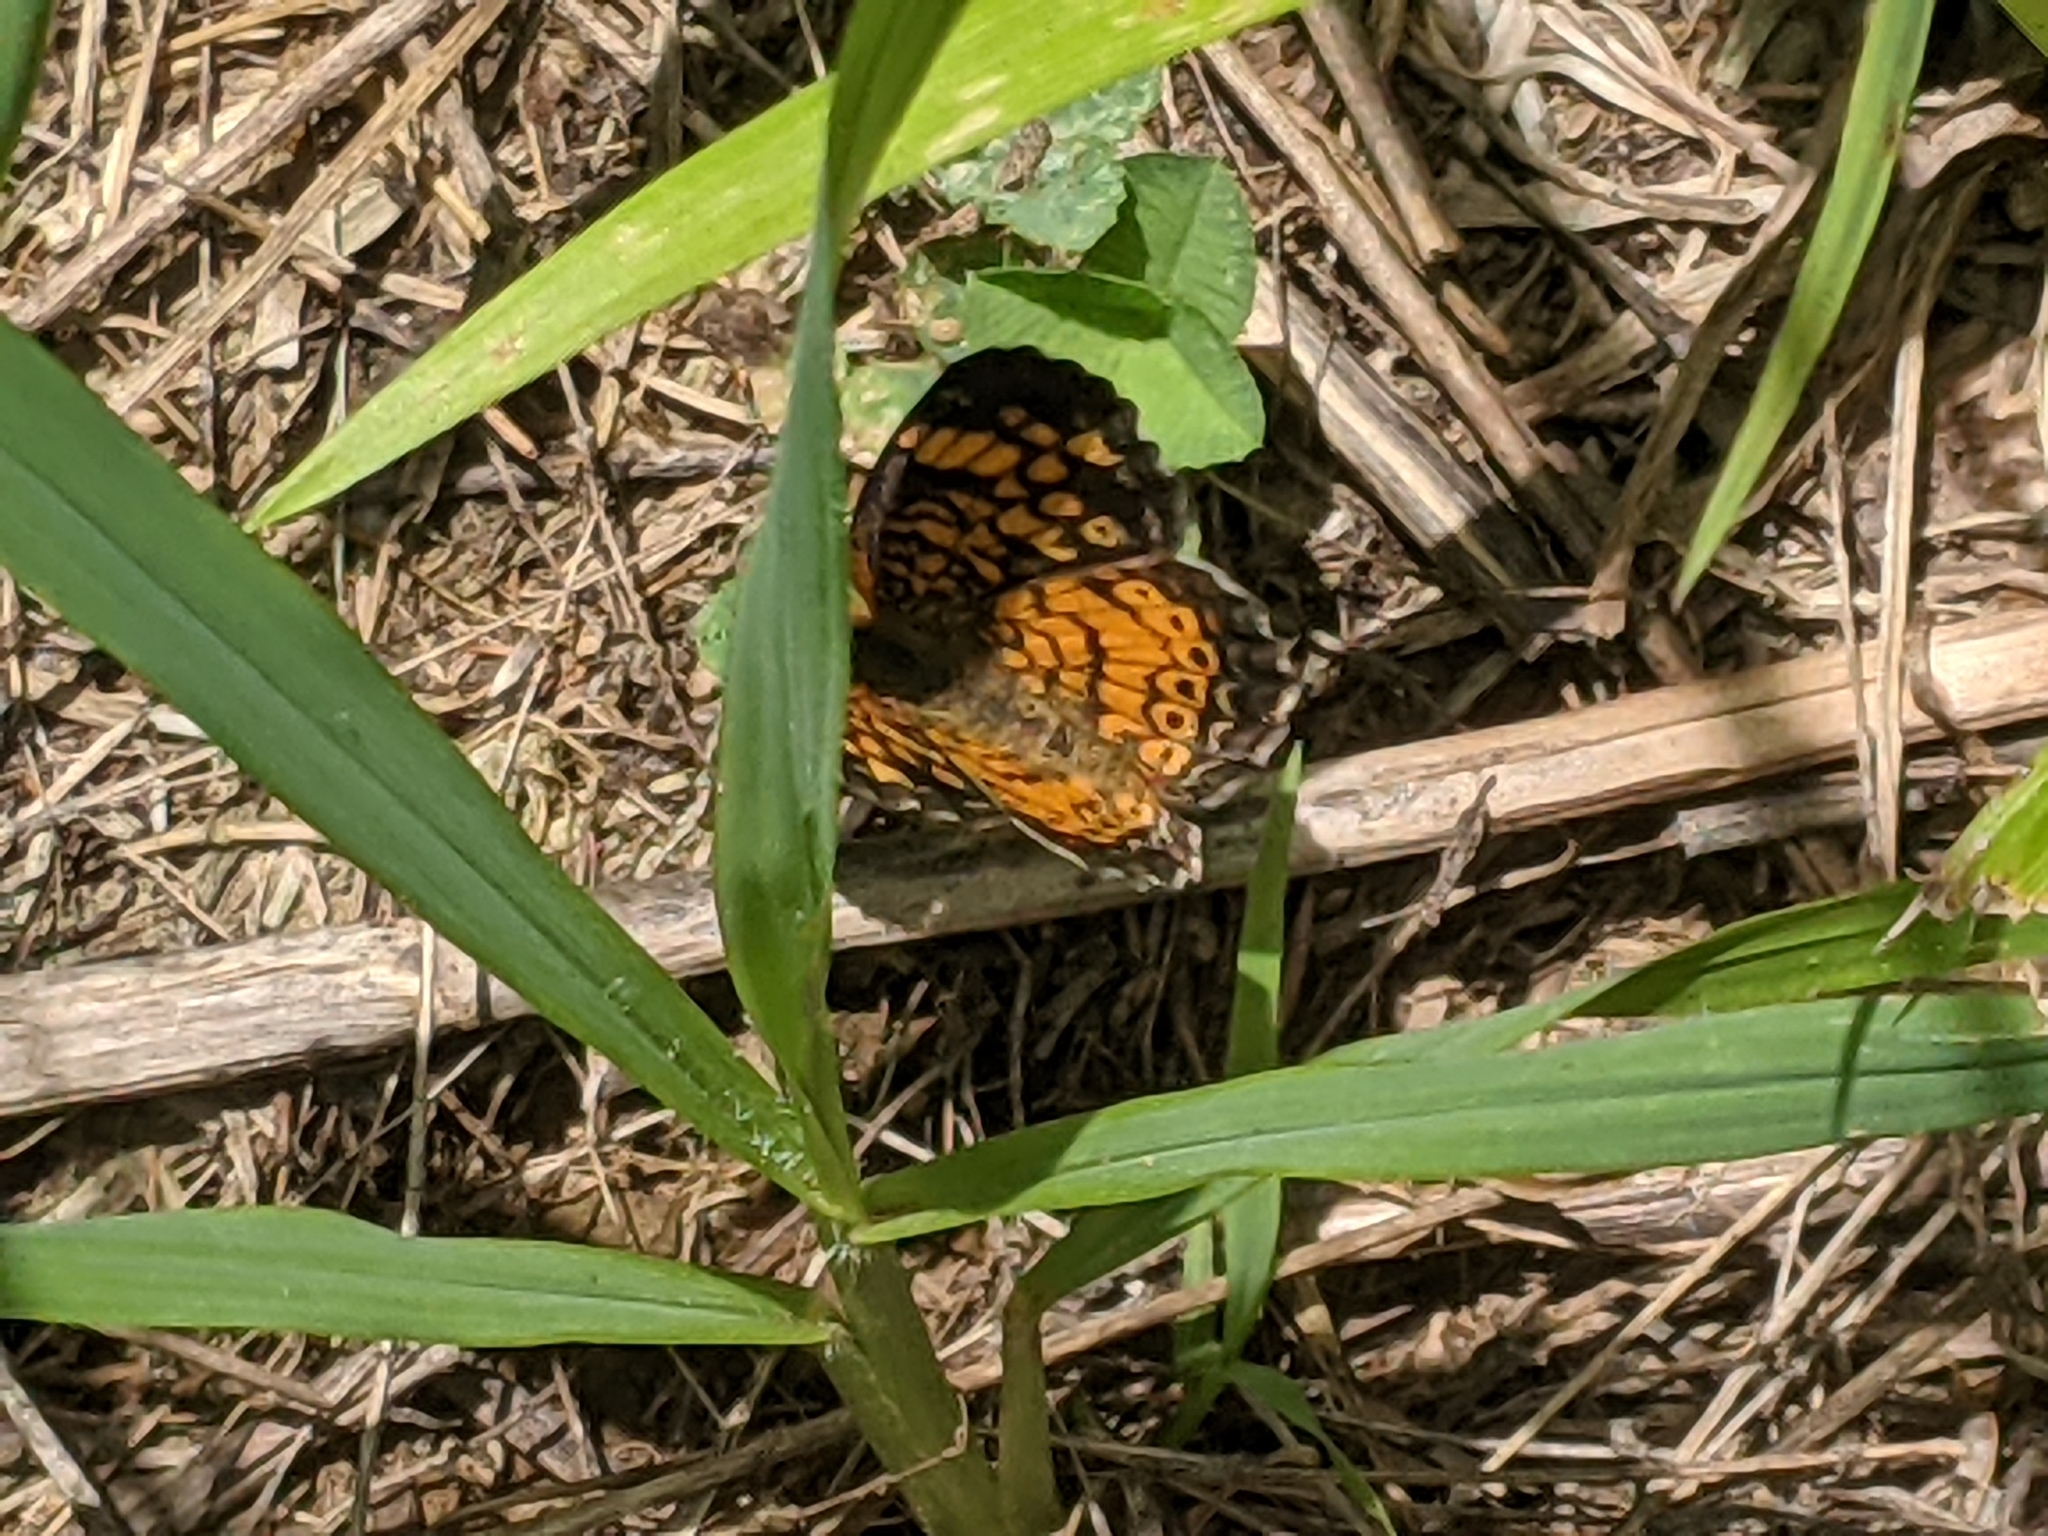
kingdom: Animalia
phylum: Arthropoda
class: Insecta
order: Lepidoptera
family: Nymphalidae
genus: Phyciodes
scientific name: Phyciodes tharos
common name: Pearl crescent
